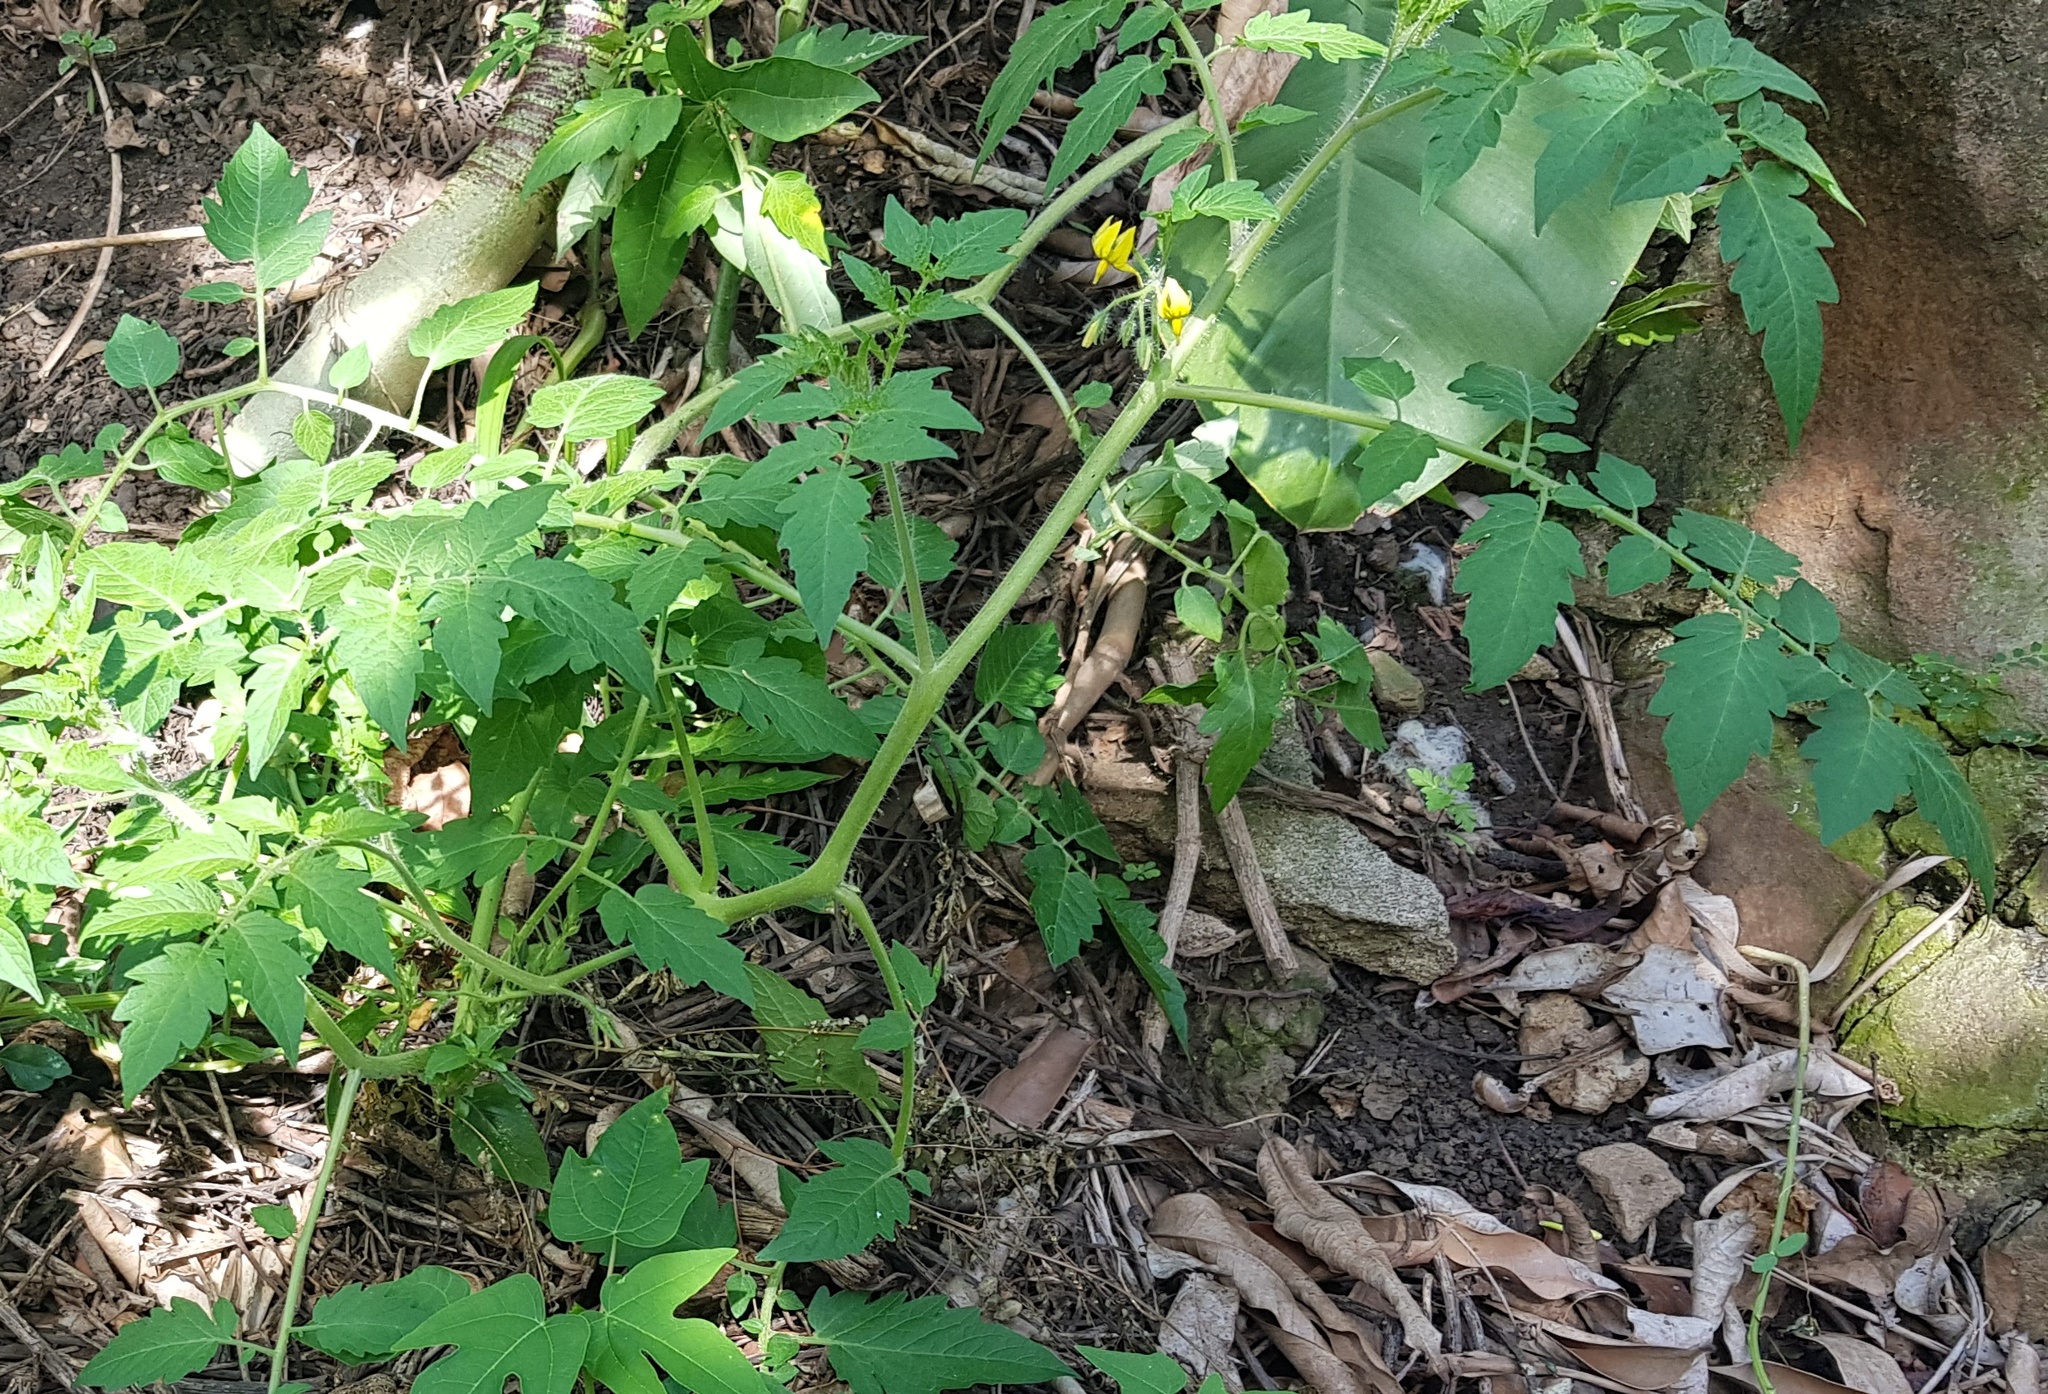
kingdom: Plantae
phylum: Tracheophyta
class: Magnoliopsida
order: Solanales
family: Solanaceae
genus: Solanum
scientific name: Solanum lycopersicum
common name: Garden tomato
